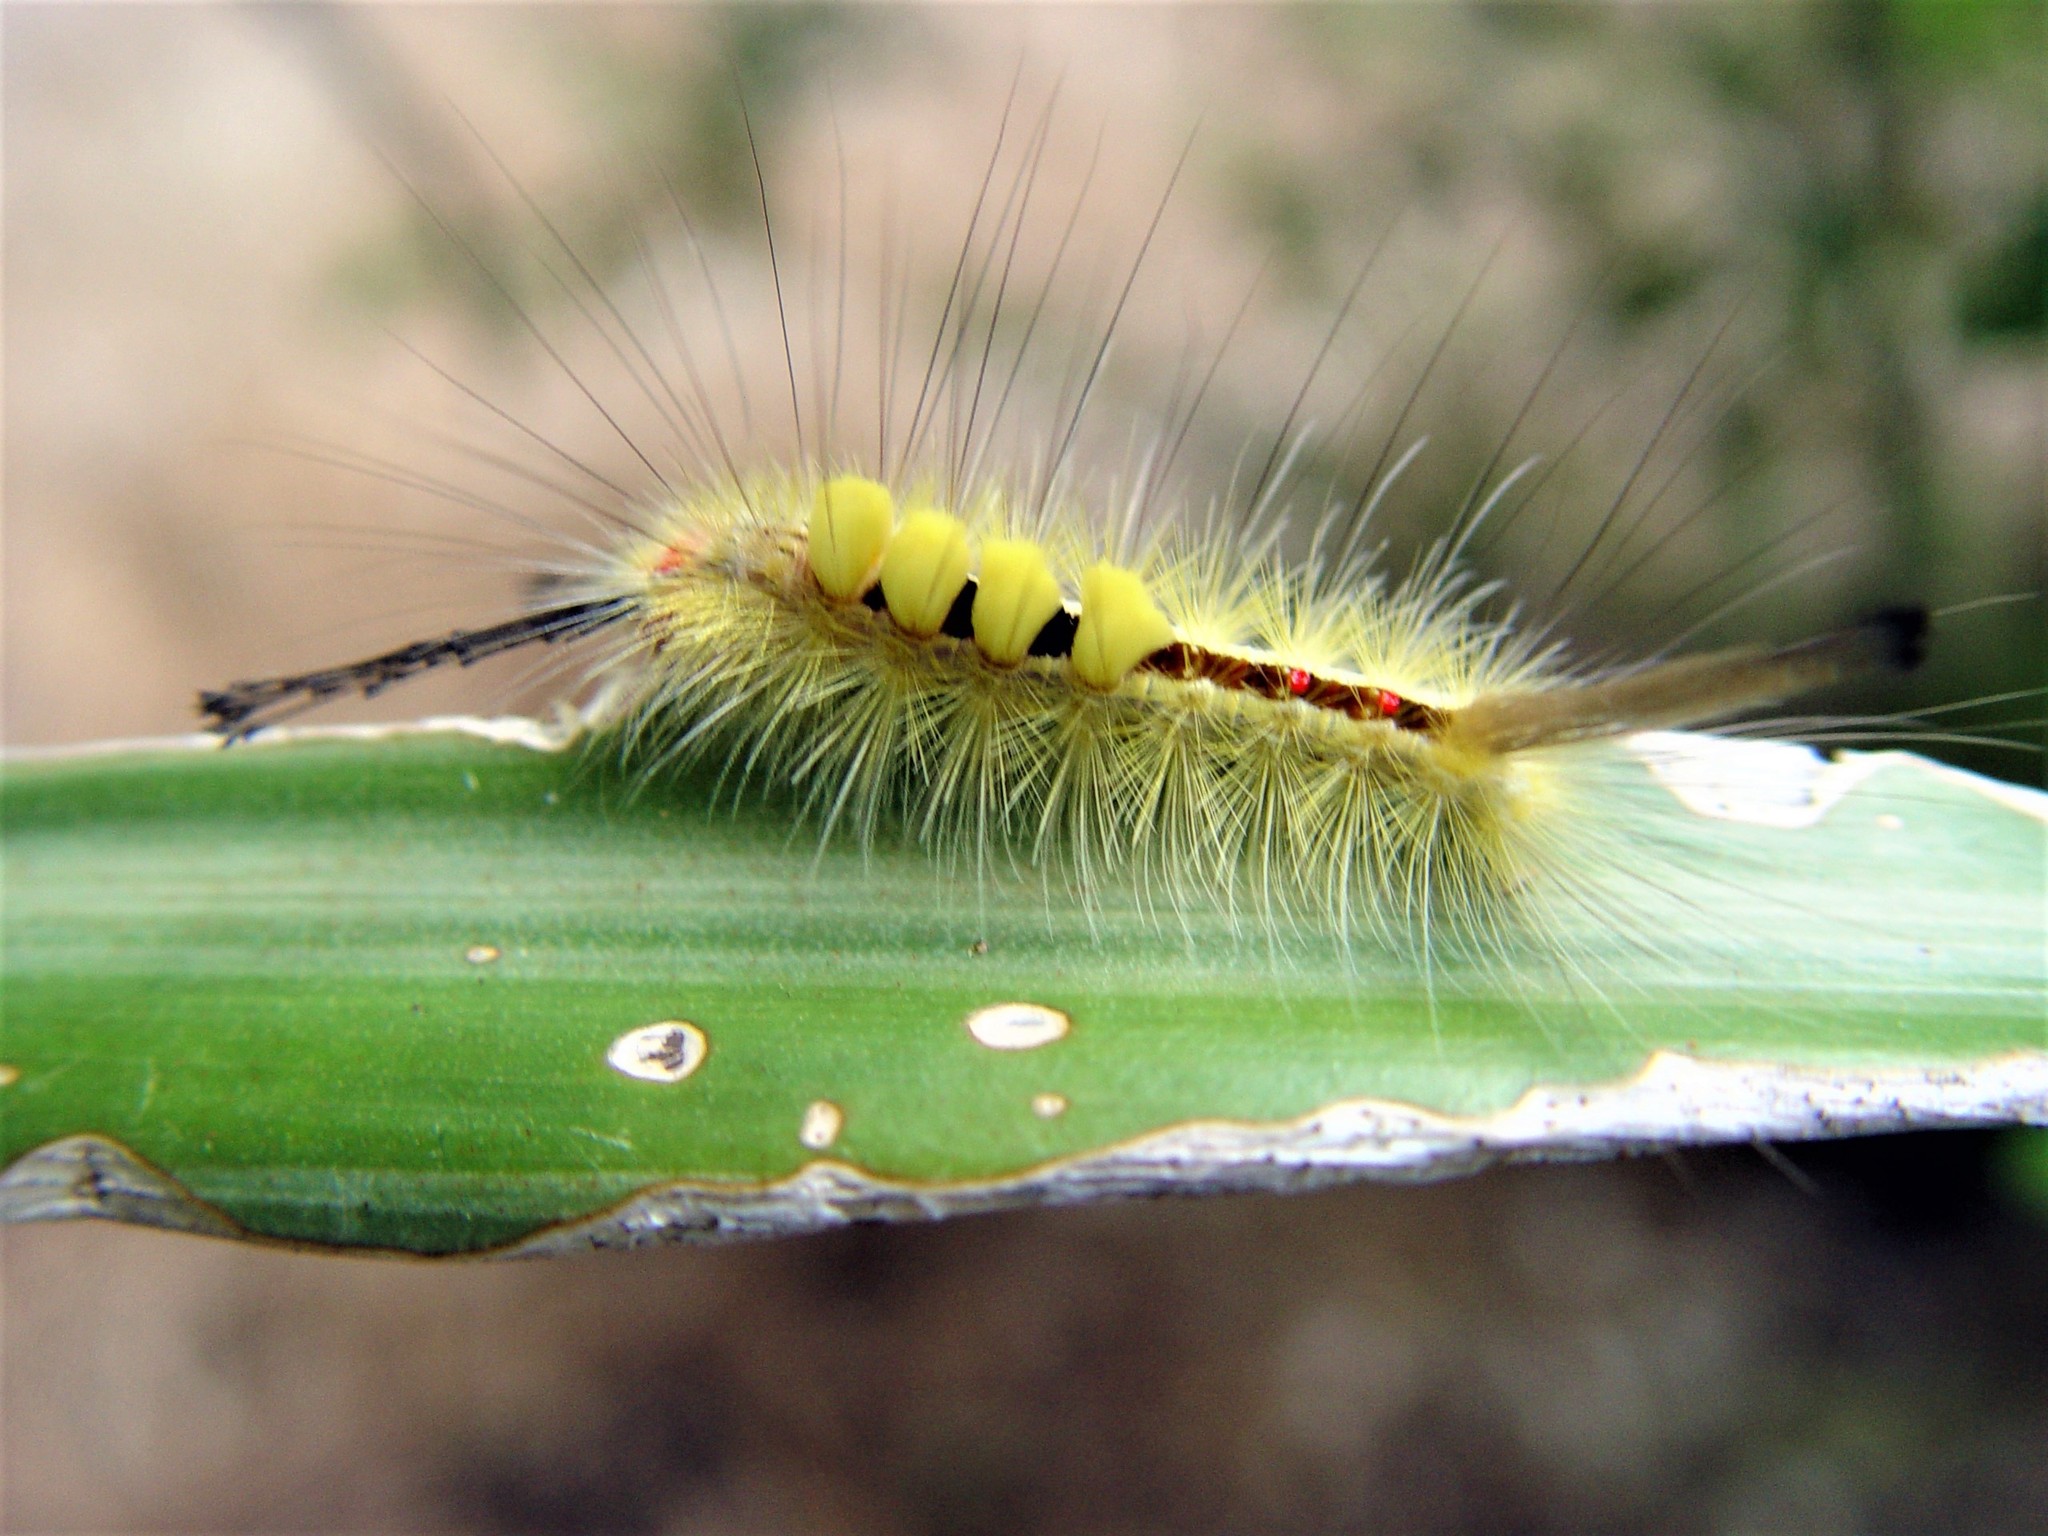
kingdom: Animalia
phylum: Arthropoda
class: Insecta
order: Lepidoptera
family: Erebidae
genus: Orgyia
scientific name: Orgyia leucostigma
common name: White-marked tussock moth
